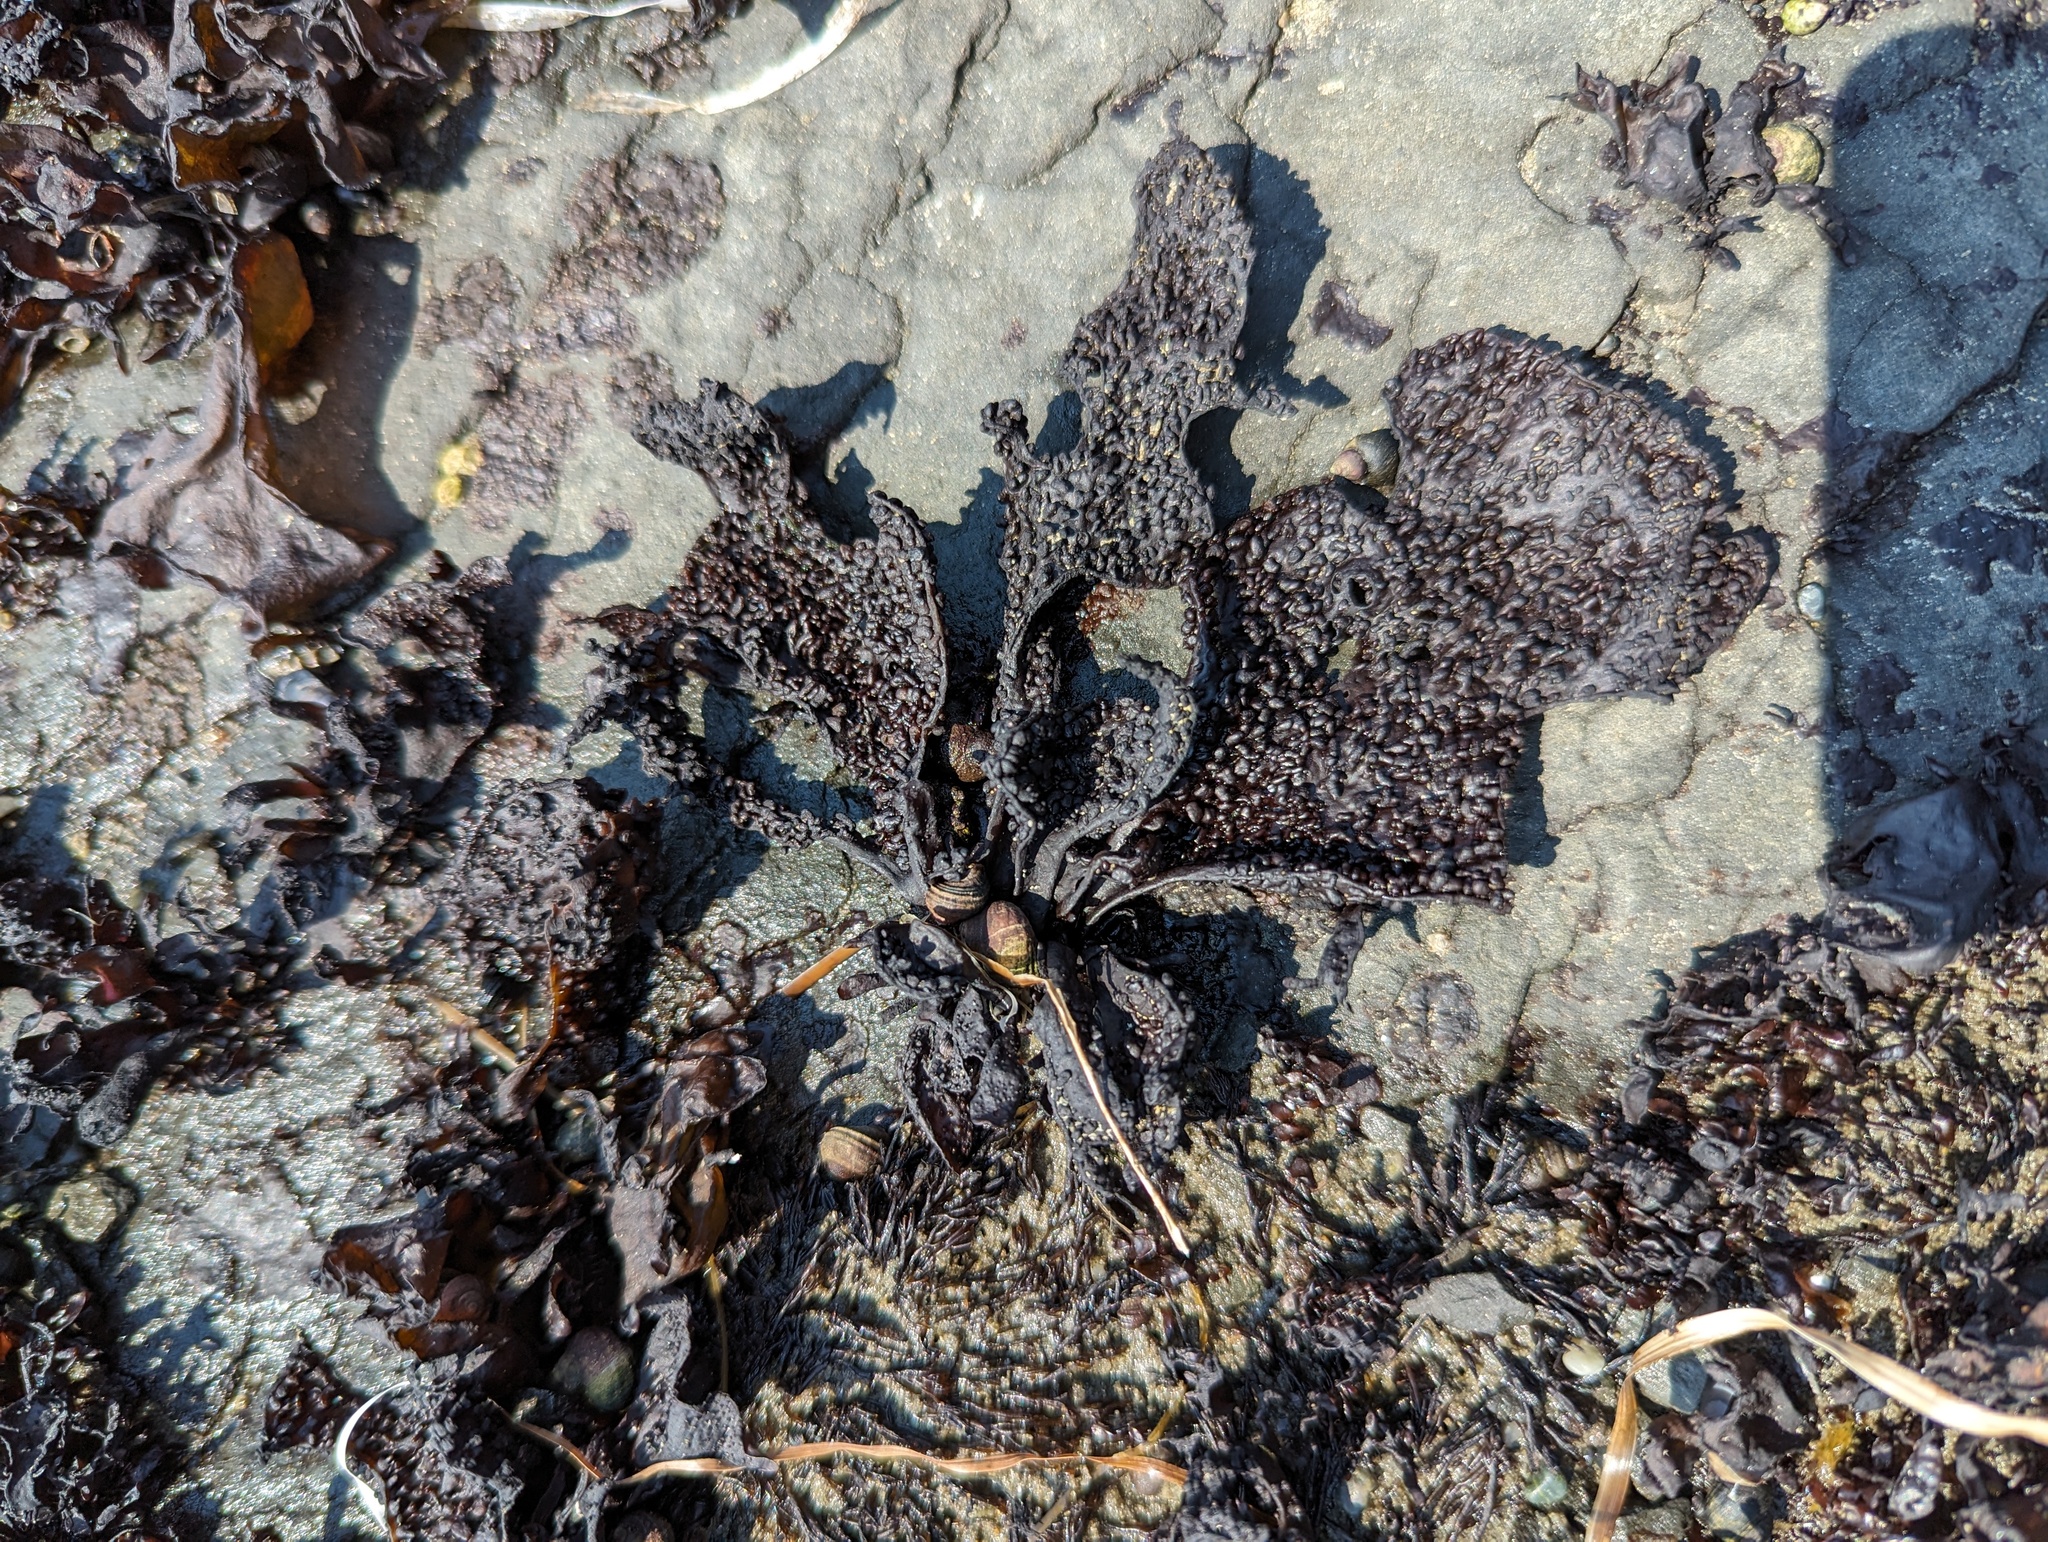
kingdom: Plantae
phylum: Rhodophyta
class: Florideophyceae
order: Gigartinales
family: Phyllophoraceae
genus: Mastocarpus
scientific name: Mastocarpus papillatus
